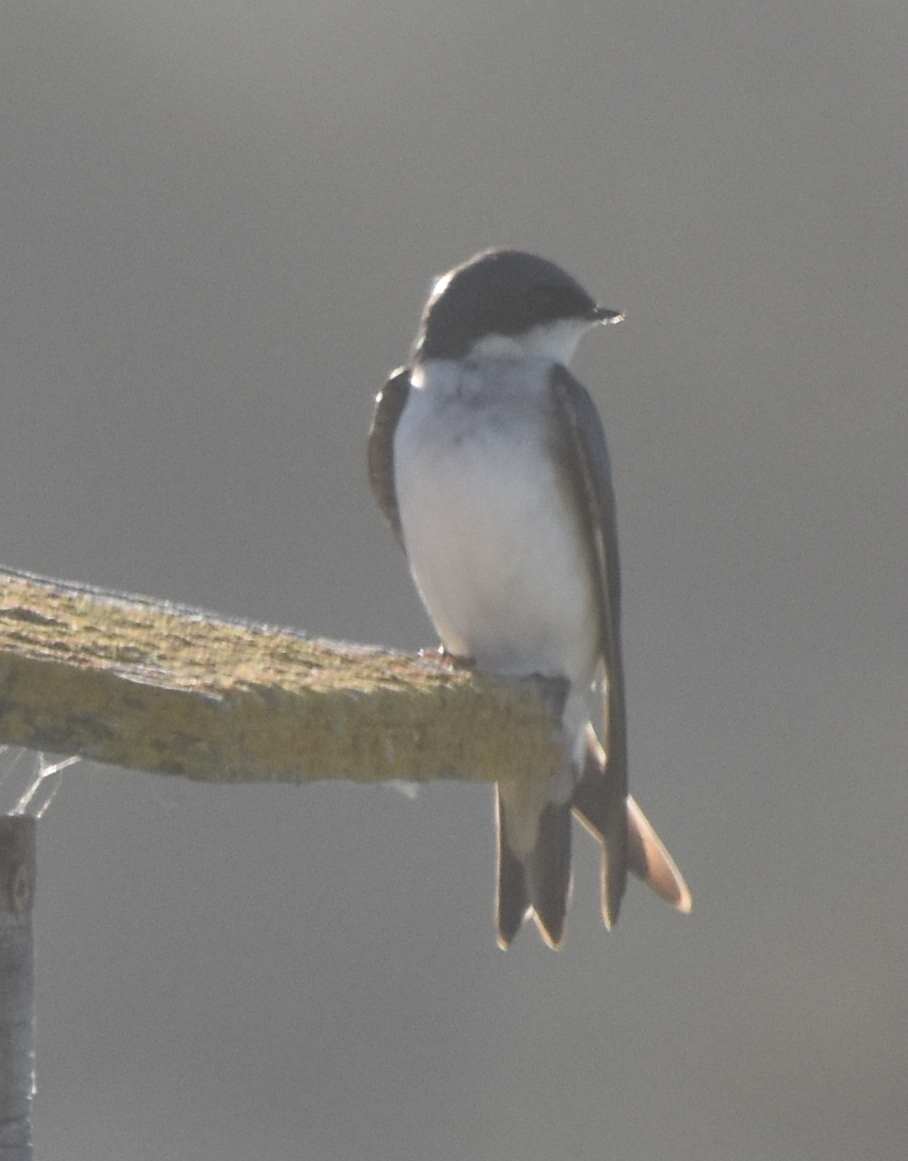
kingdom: Animalia
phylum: Chordata
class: Aves
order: Passeriformes
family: Hirundinidae
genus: Tachycineta
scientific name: Tachycineta bicolor
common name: Tree swallow
